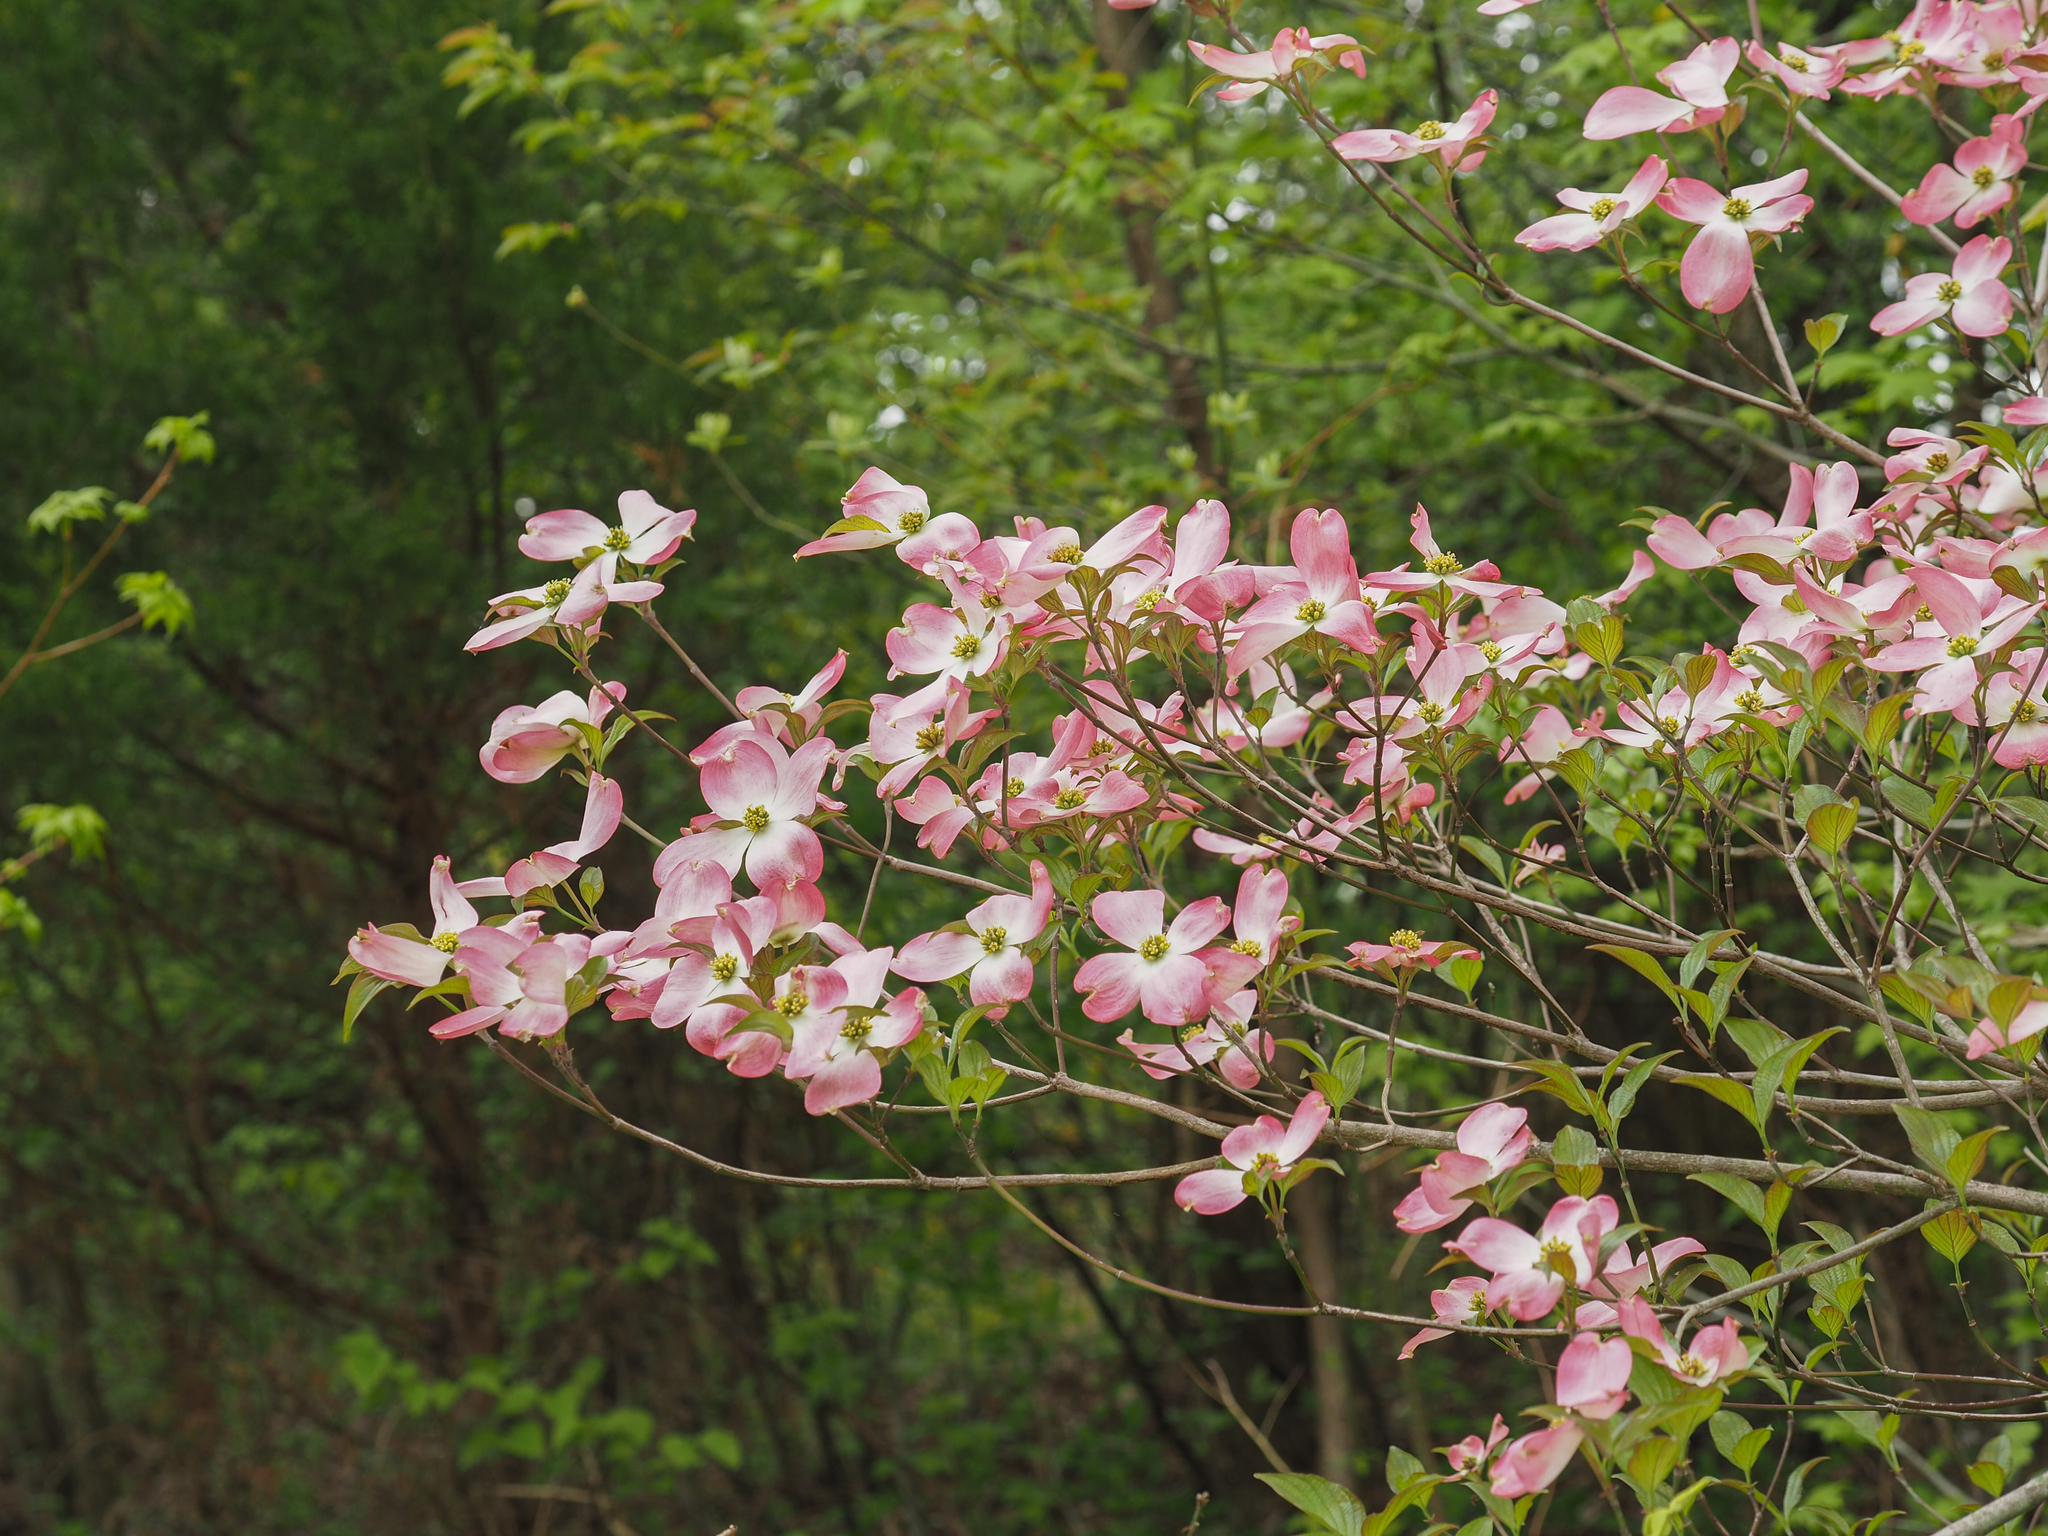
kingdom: Plantae
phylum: Tracheophyta
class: Magnoliopsida
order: Cornales
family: Cornaceae
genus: Cornus
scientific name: Cornus florida
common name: Flowering dogwood
